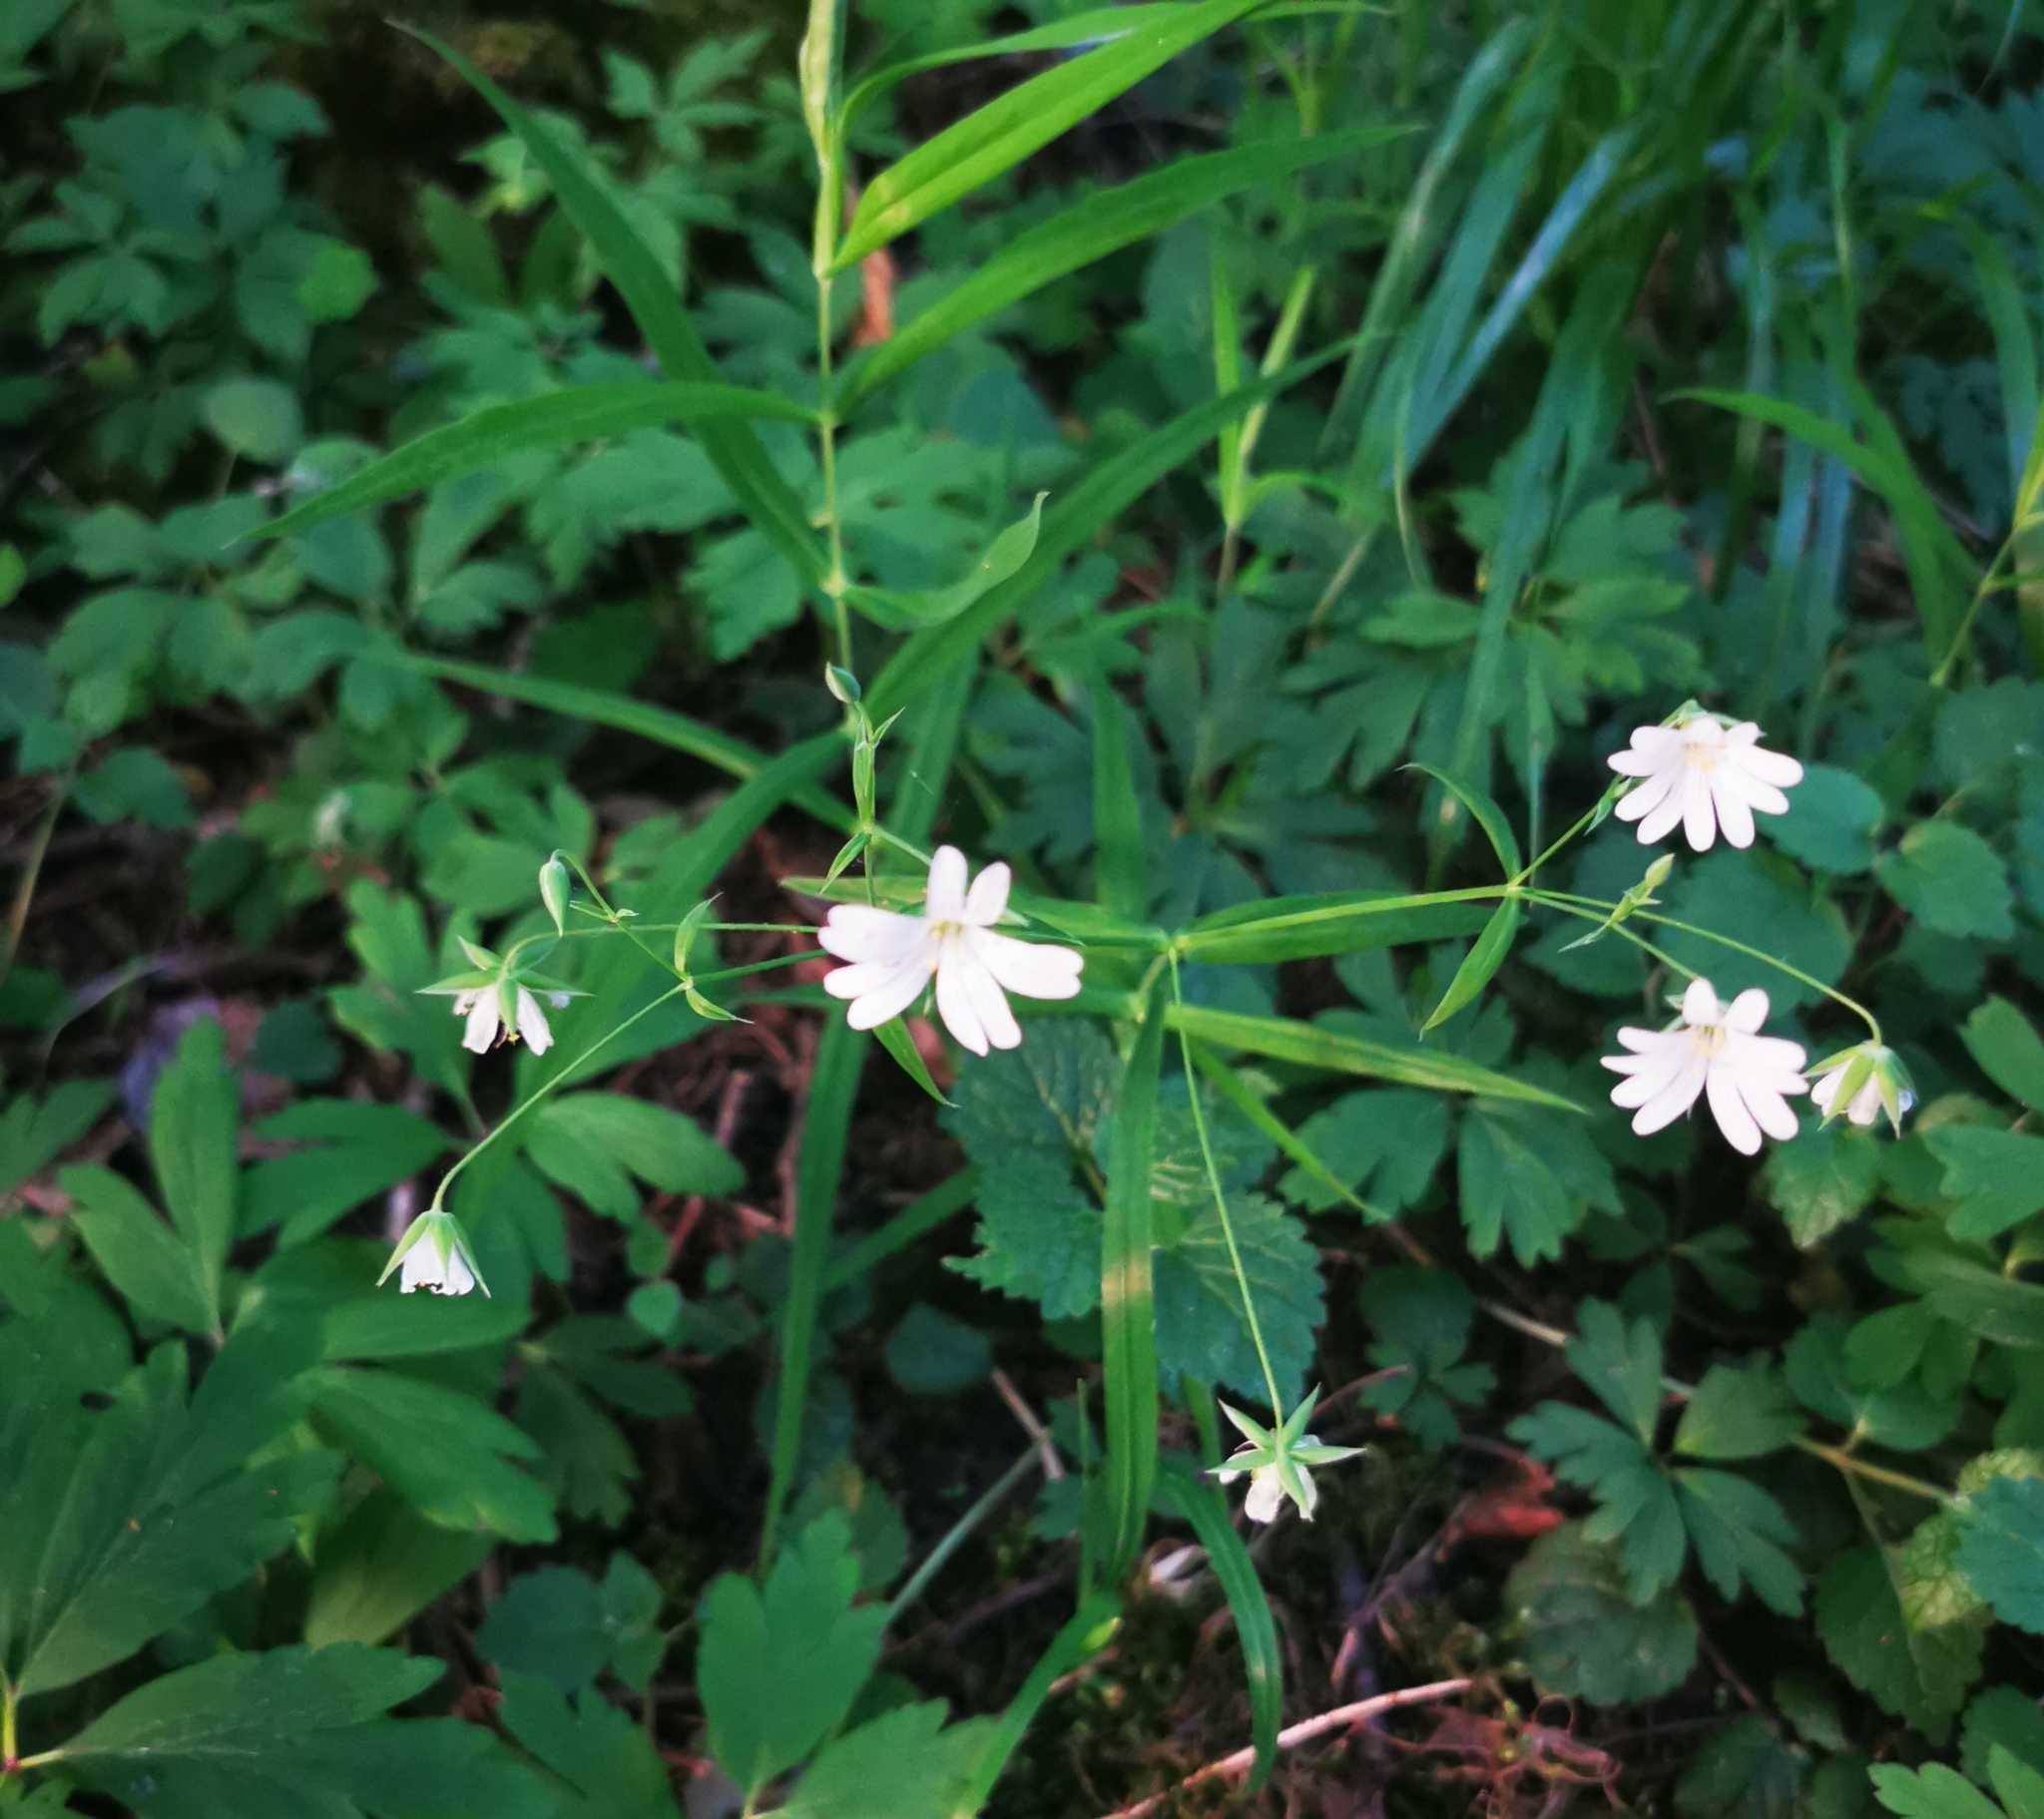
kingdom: Plantae
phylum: Tracheophyta
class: Magnoliopsida
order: Caryophyllales
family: Caryophyllaceae
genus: Rabelera
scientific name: Rabelera holostea
